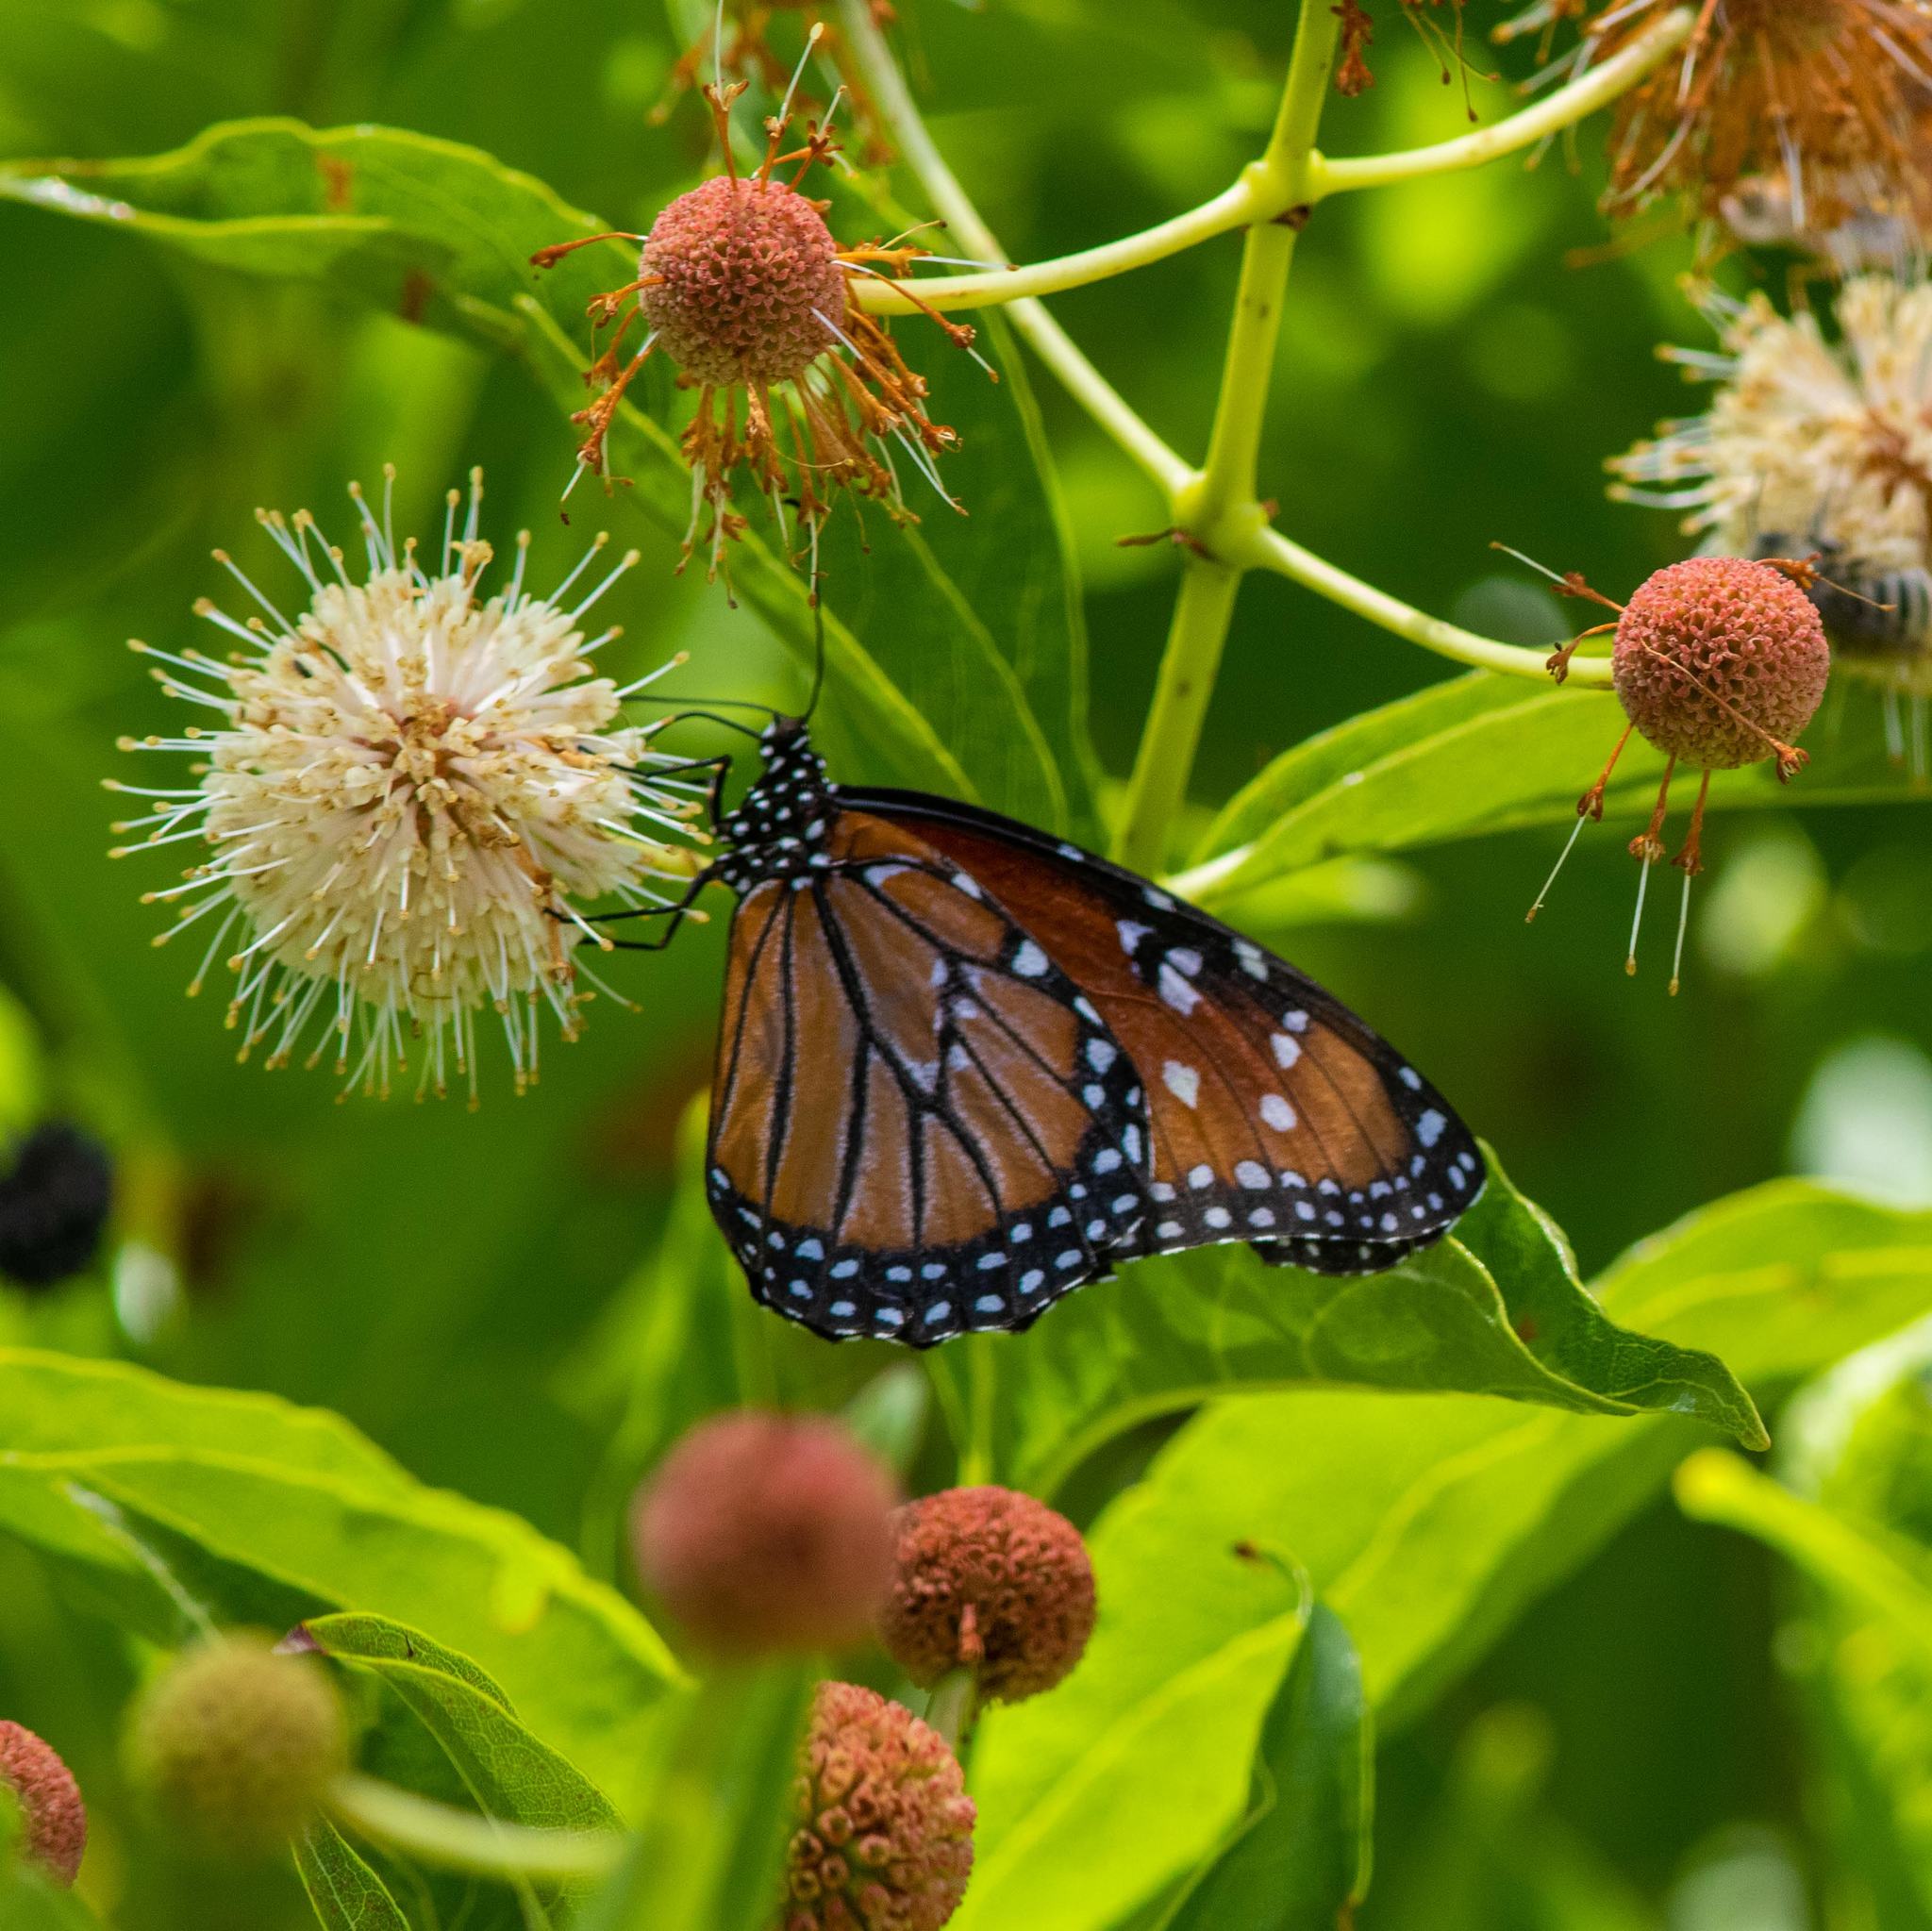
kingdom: Animalia
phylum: Arthropoda
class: Insecta
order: Lepidoptera
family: Nymphalidae
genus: Danaus
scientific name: Danaus gilippus
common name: Queen
